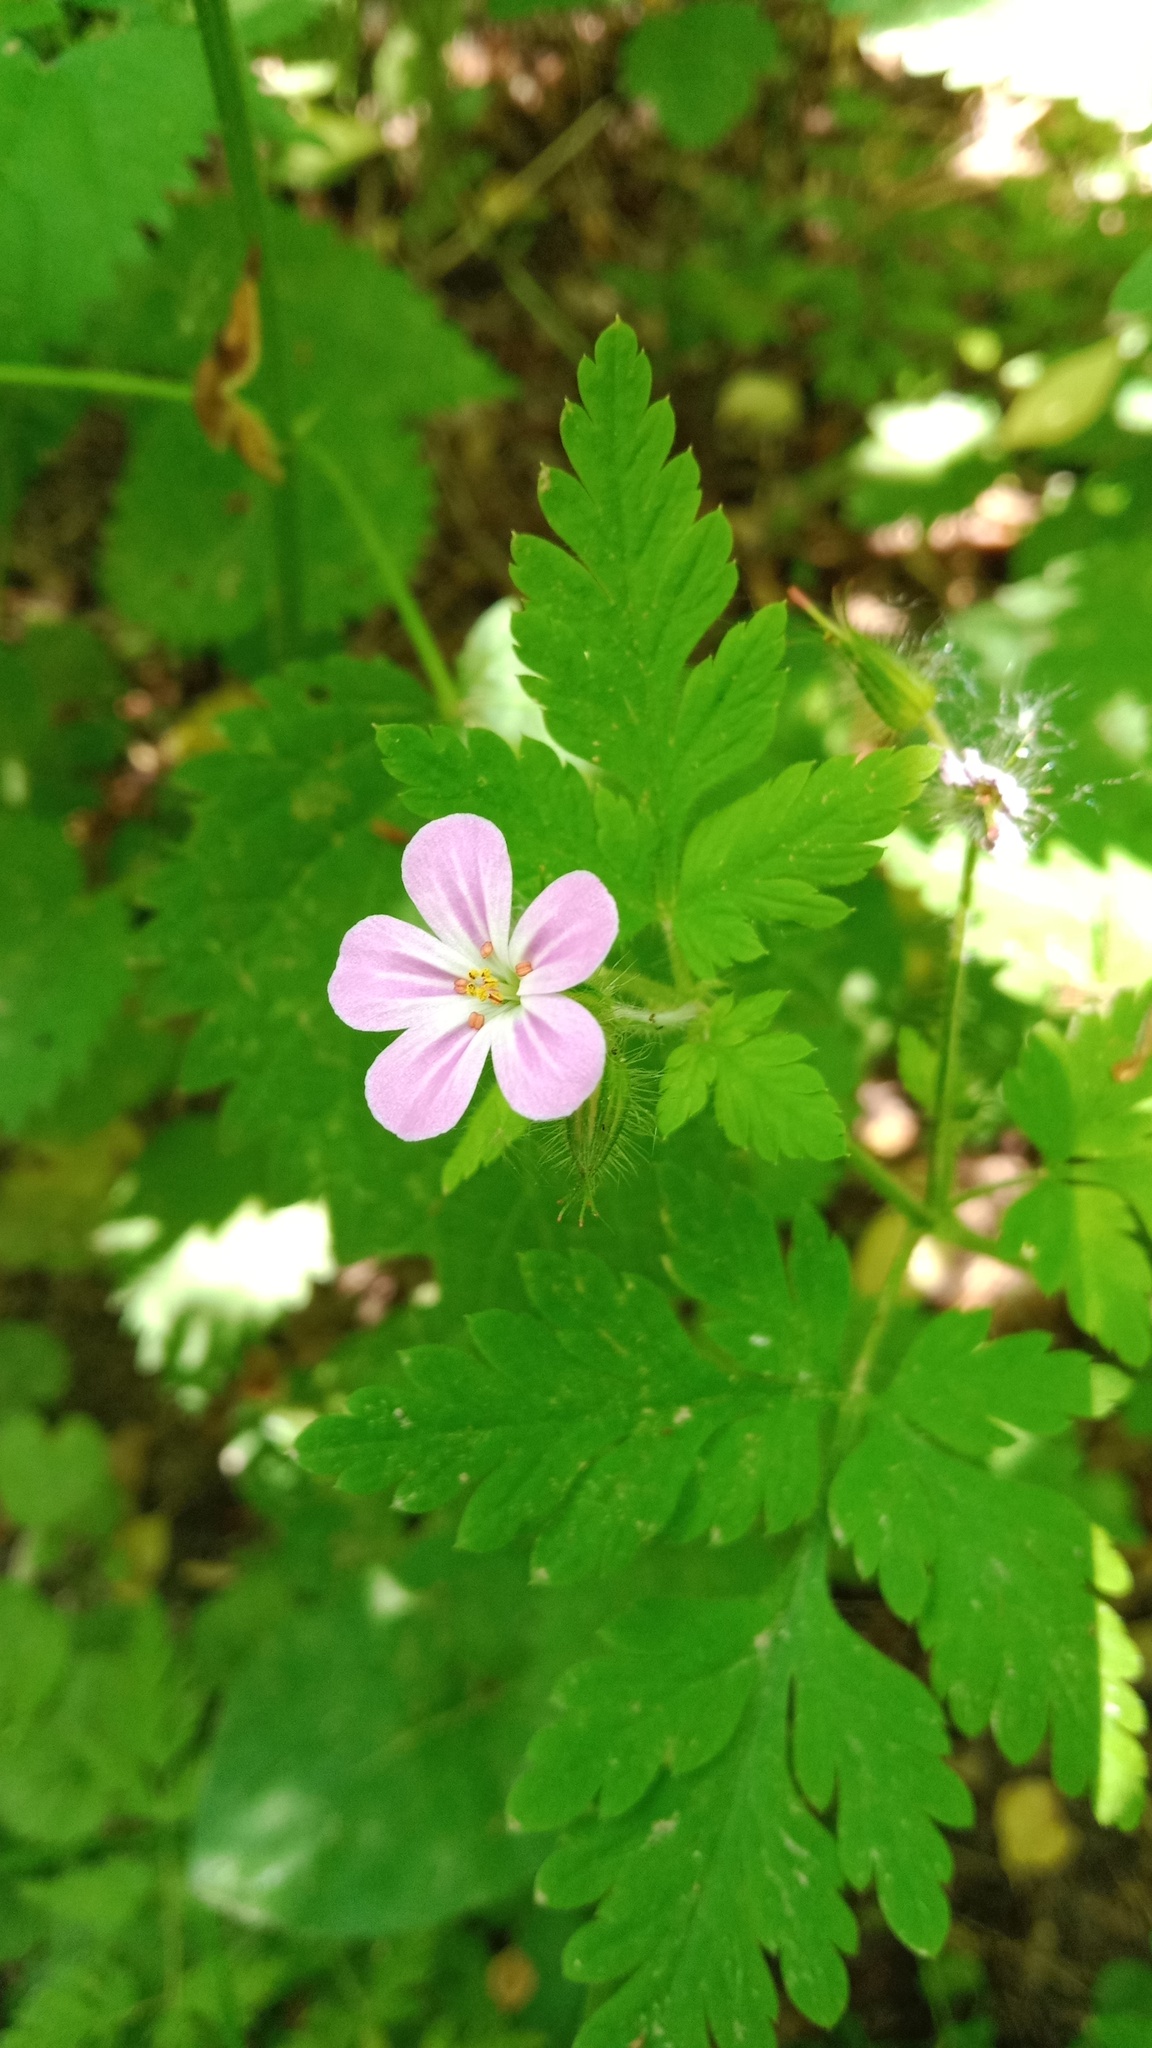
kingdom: Plantae
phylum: Tracheophyta
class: Magnoliopsida
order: Geraniales
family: Geraniaceae
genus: Geranium
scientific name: Geranium robertianum
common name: Herb-robert
